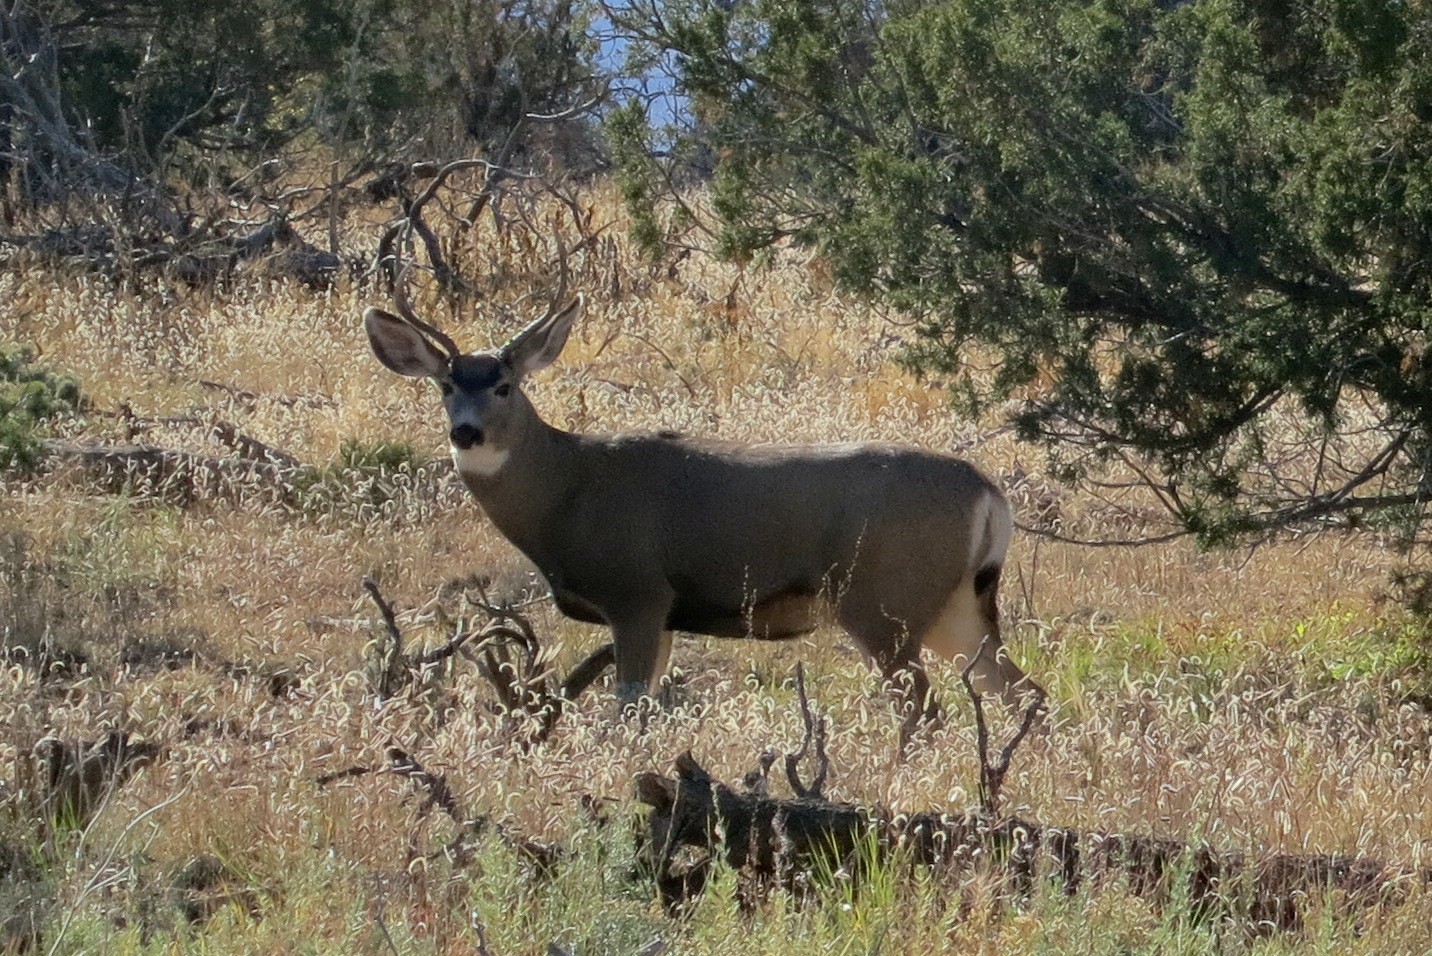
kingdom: Animalia
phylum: Chordata
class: Mammalia
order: Artiodactyla
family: Cervidae
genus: Odocoileus
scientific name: Odocoileus hemionus
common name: Mule deer
